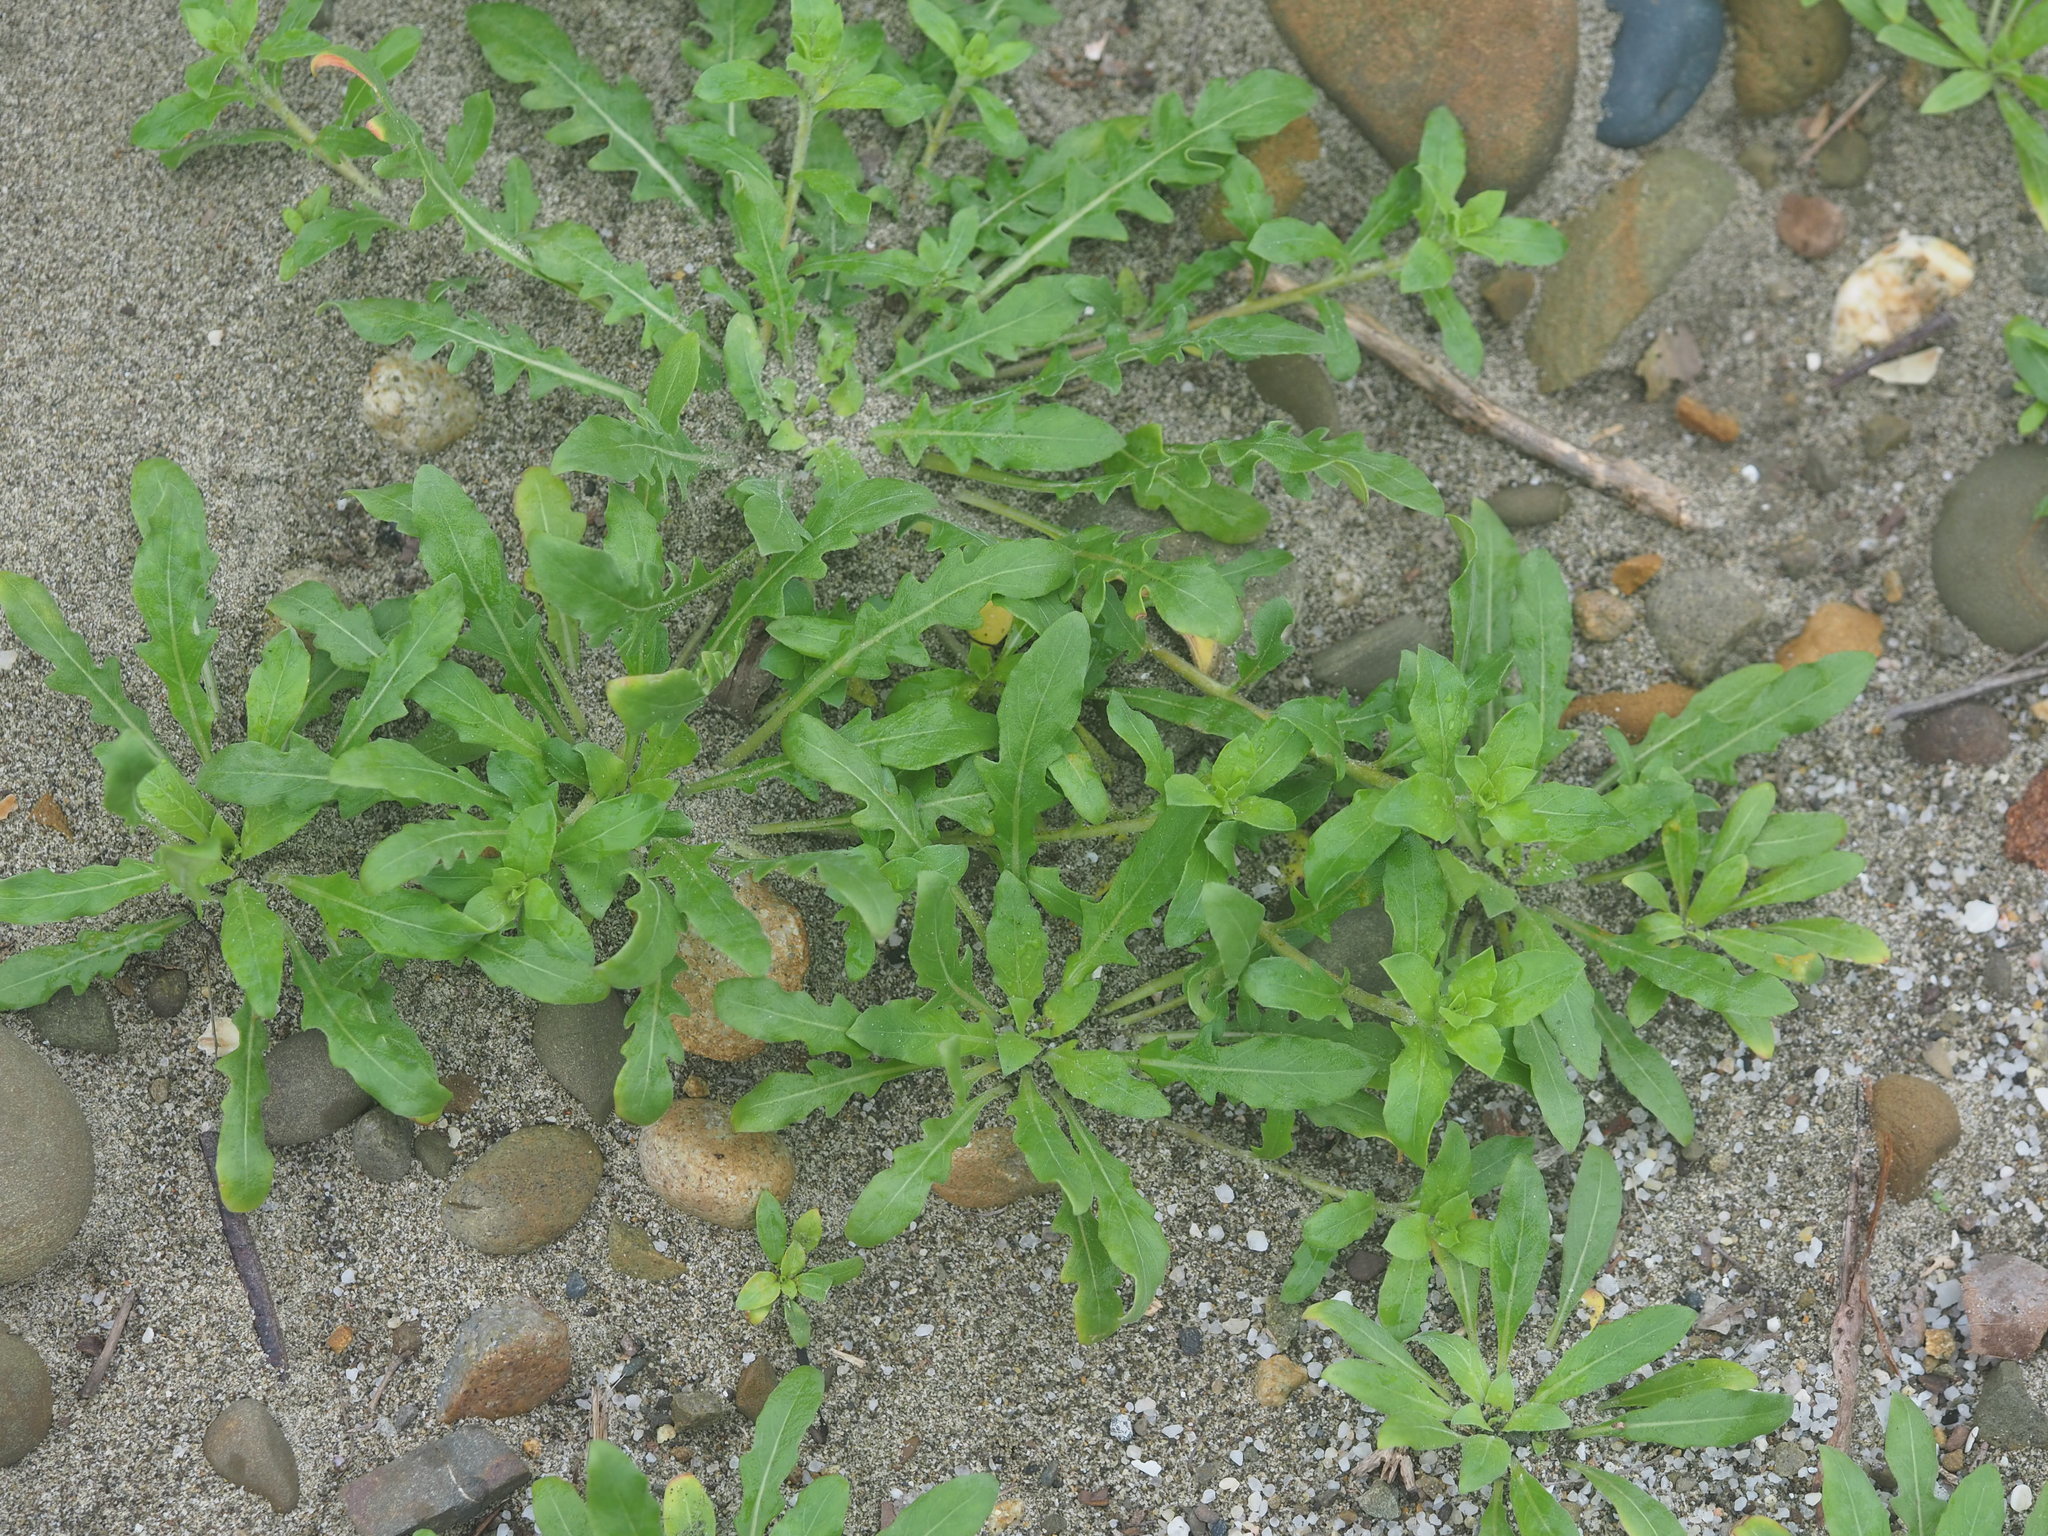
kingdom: Plantae
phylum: Tracheophyta
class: Magnoliopsida
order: Myrtales
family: Onagraceae
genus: Oenothera
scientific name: Oenothera laciniata
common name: Cut-leaved evening-primrose
